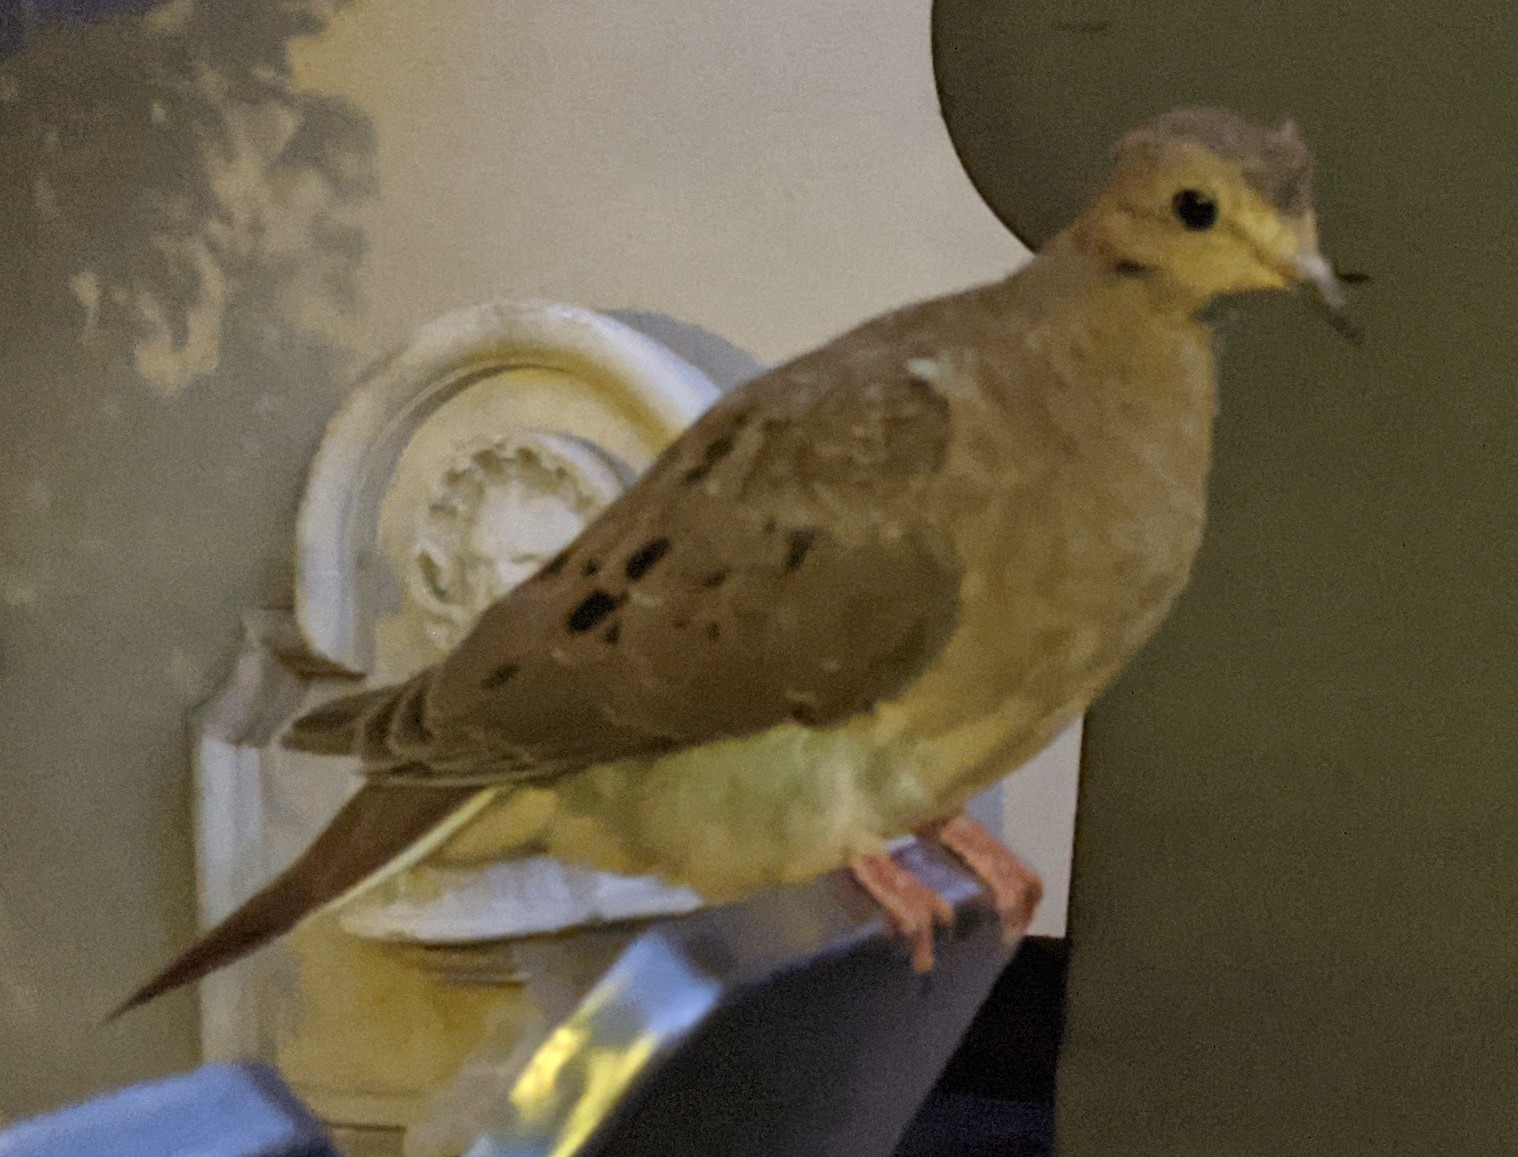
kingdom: Animalia
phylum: Chordata
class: Aves
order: Columbiformes
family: Columbidae
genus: Zenaida
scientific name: Zenaida macroura
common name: Mourning dove
